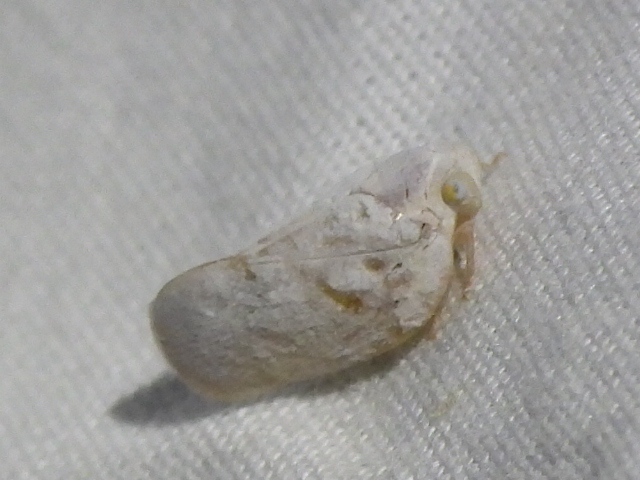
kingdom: Animalia
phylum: Arthropoda
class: Insecta
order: Hemiptera
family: Flatidae
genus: Flatormenis
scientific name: Flatormenis saucia
